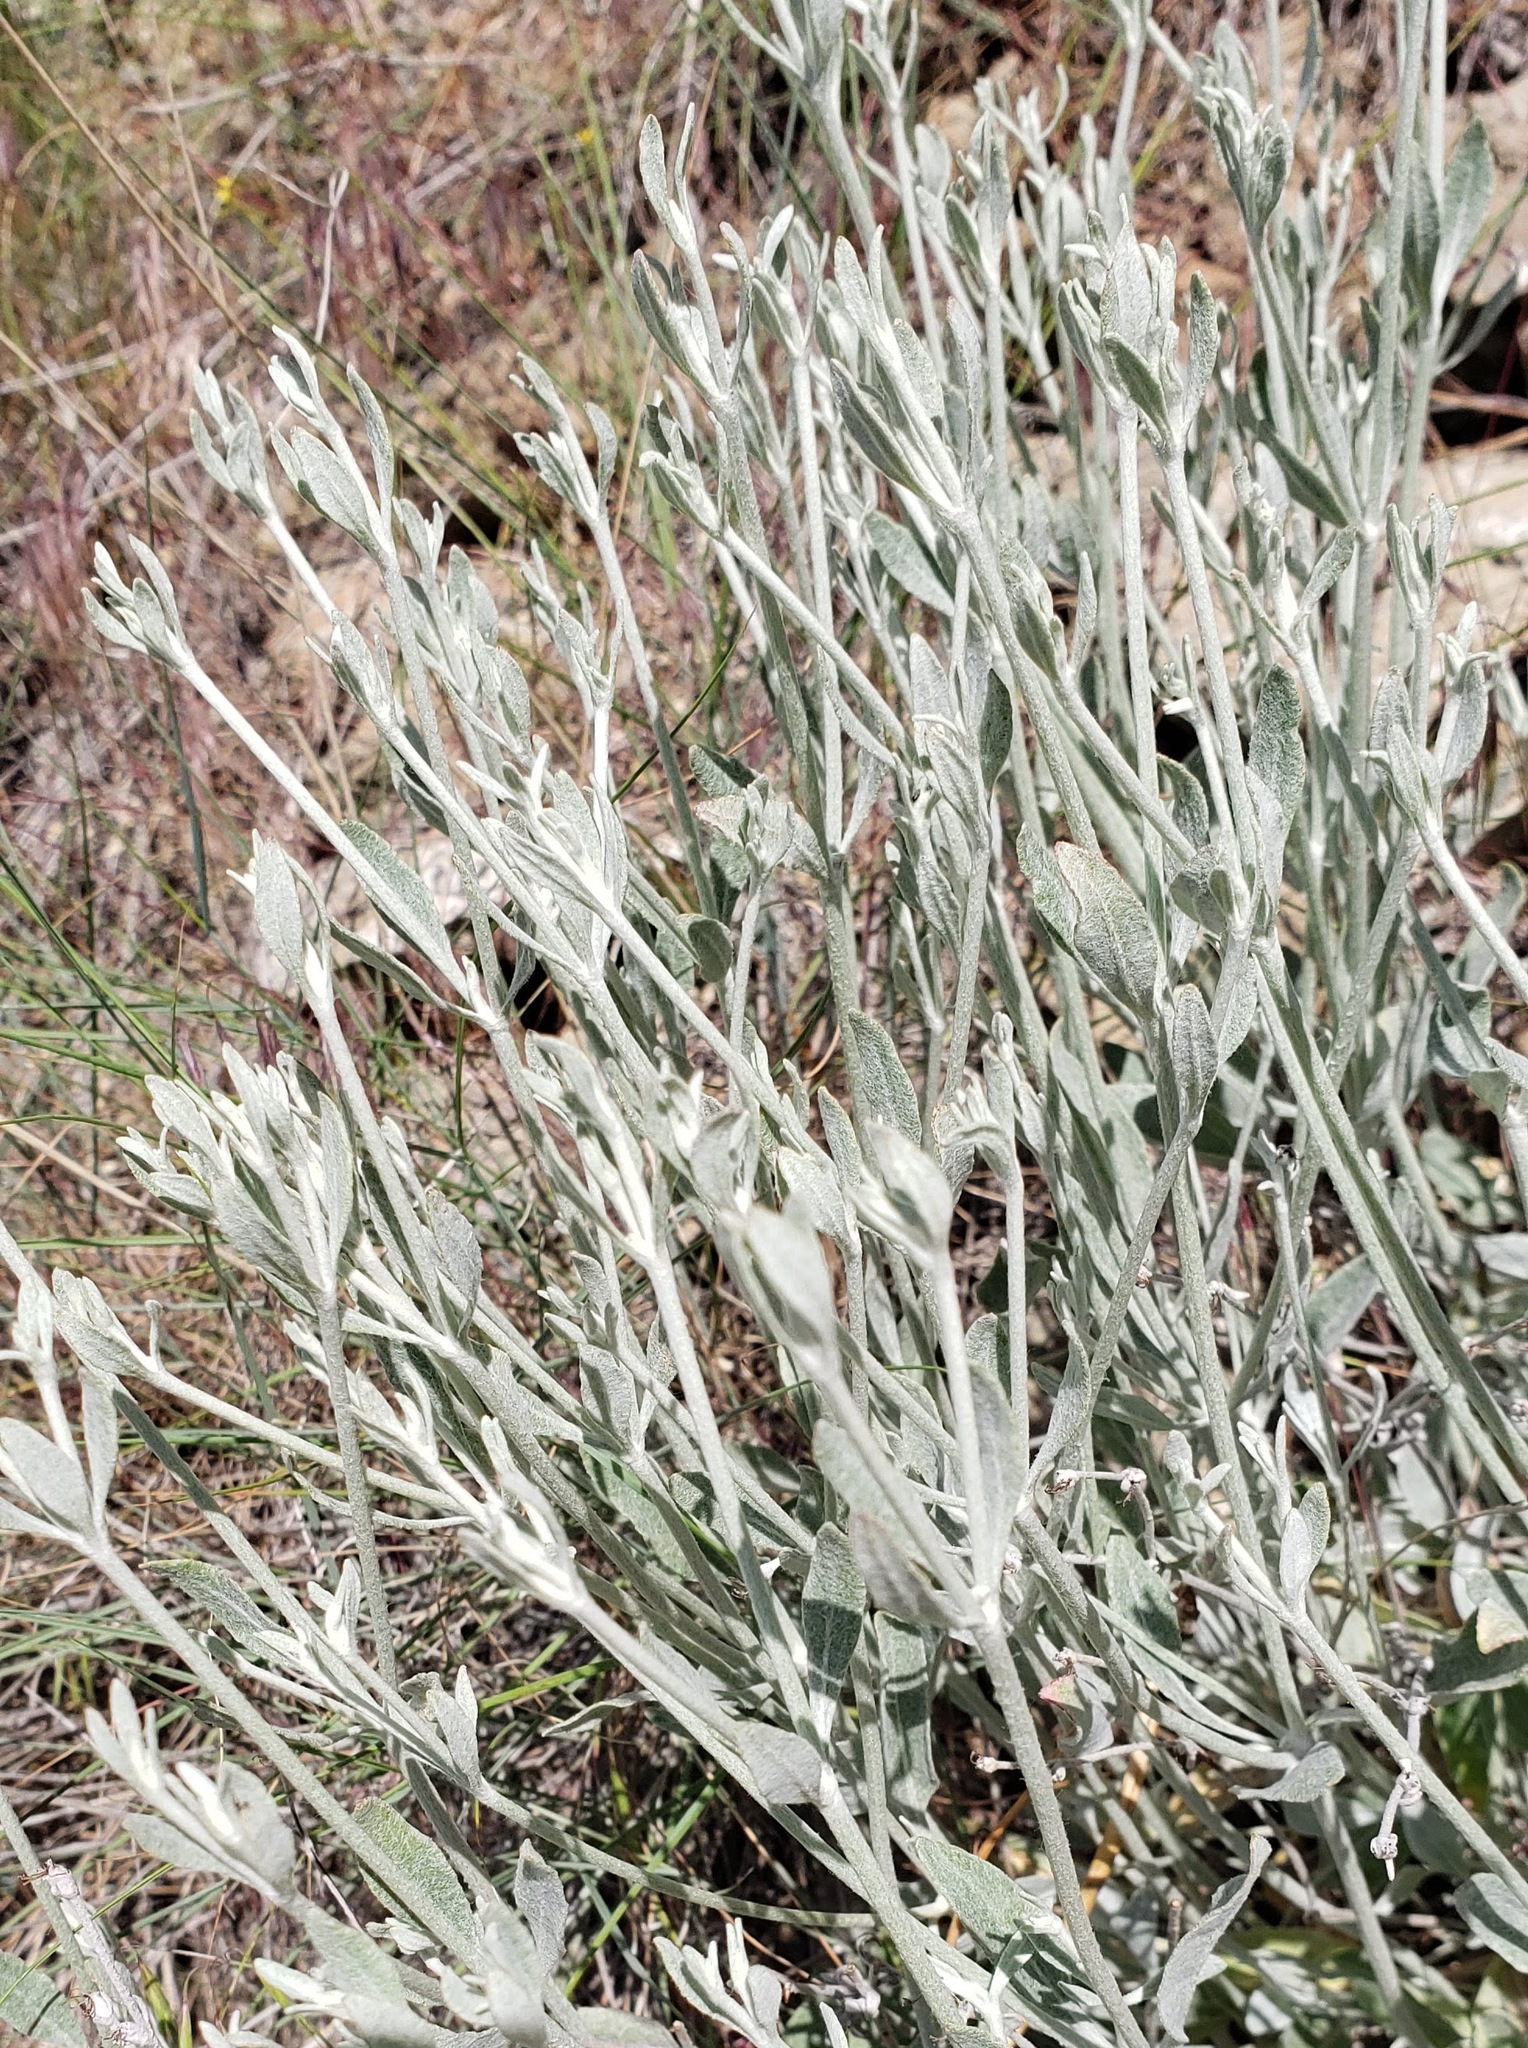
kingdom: Plantae
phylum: Tracheophyta
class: Magnoliopsida
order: Caryophyllales
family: Polygonaceae
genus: Eriogonum
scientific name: Eriogonum niveum
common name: Snow wild buckwheat
